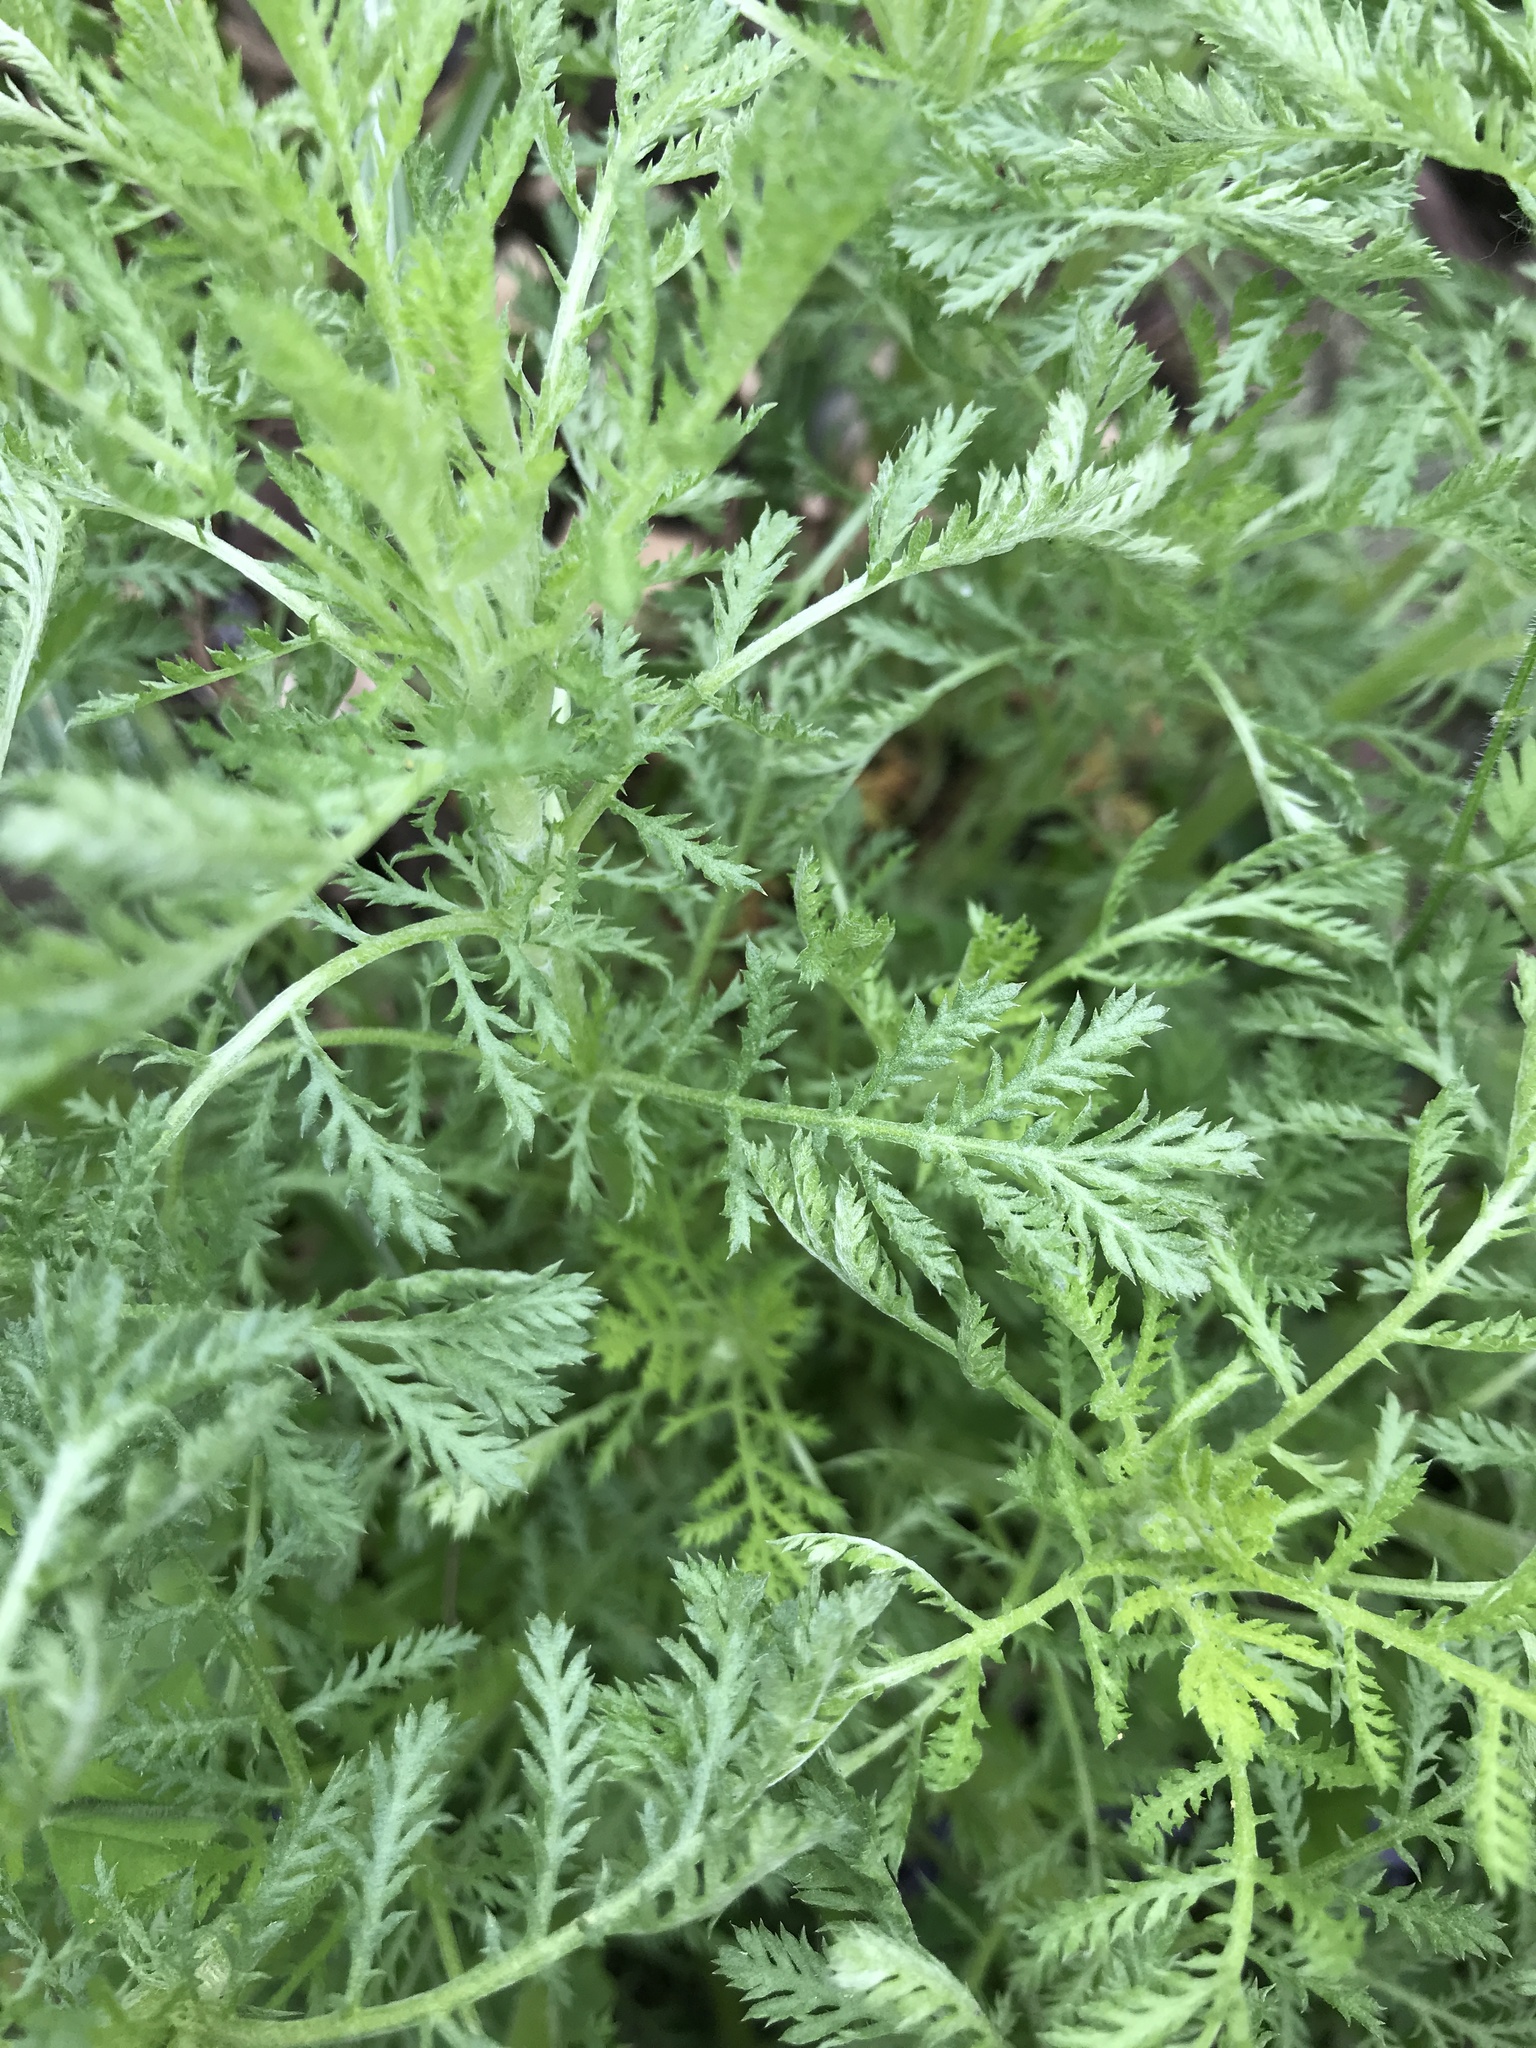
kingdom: Plantae
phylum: Tracheophyta
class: Magnoliopsida
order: Asterales
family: Asteraceae
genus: Cota
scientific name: Cota tinctoria
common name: Golden chamomile
